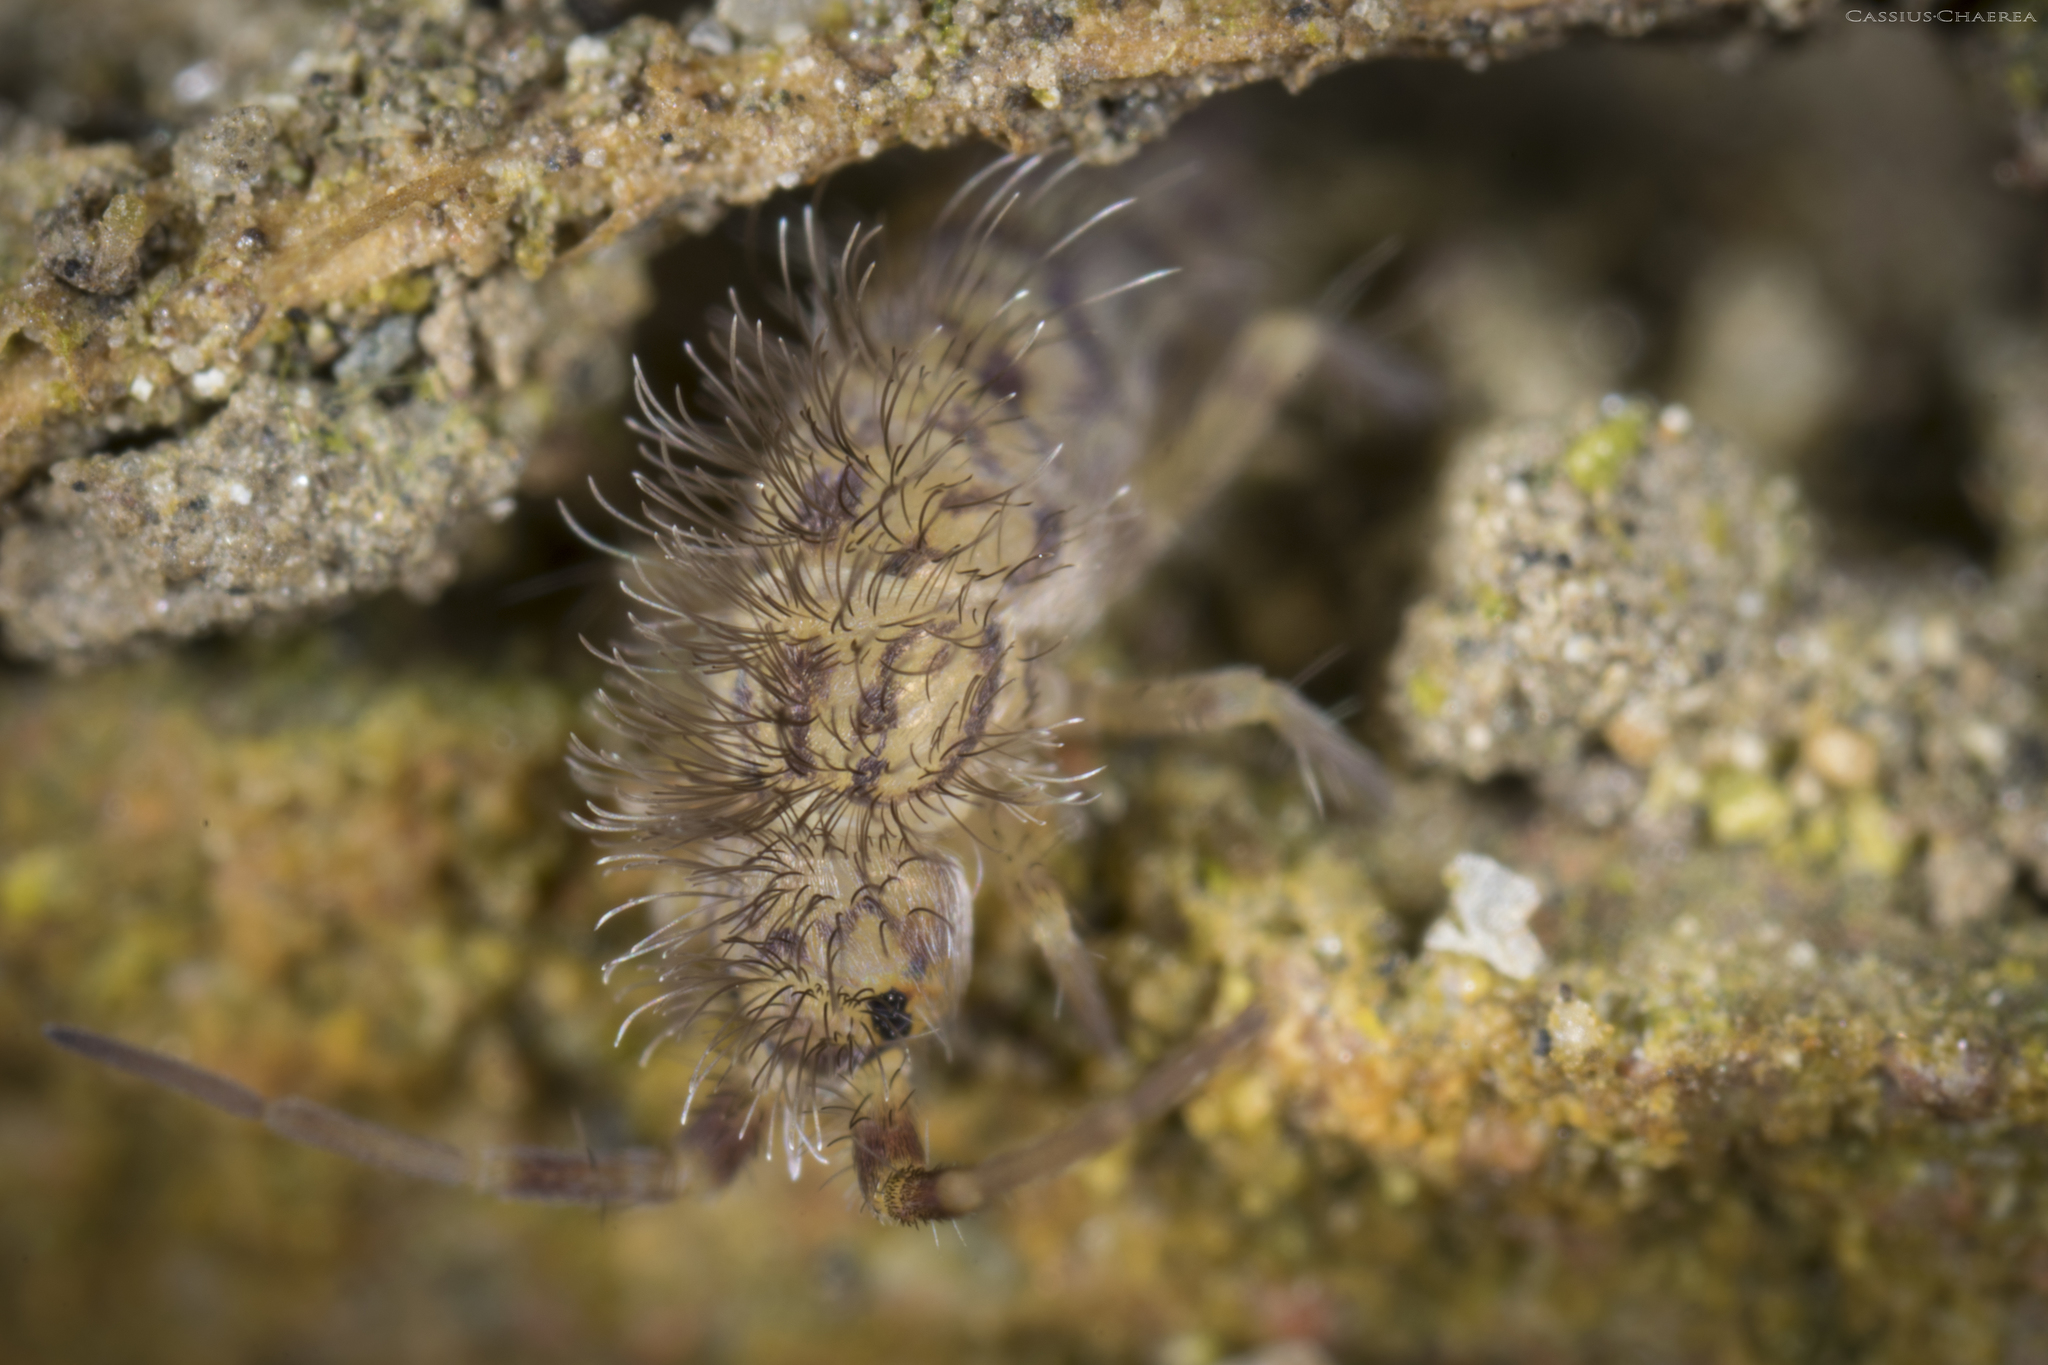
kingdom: Animalia
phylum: Arthropoda
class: Collembola
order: Entomobryomorpha
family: Orchesellidae
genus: Orchesella
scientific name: Orchesella villosa
